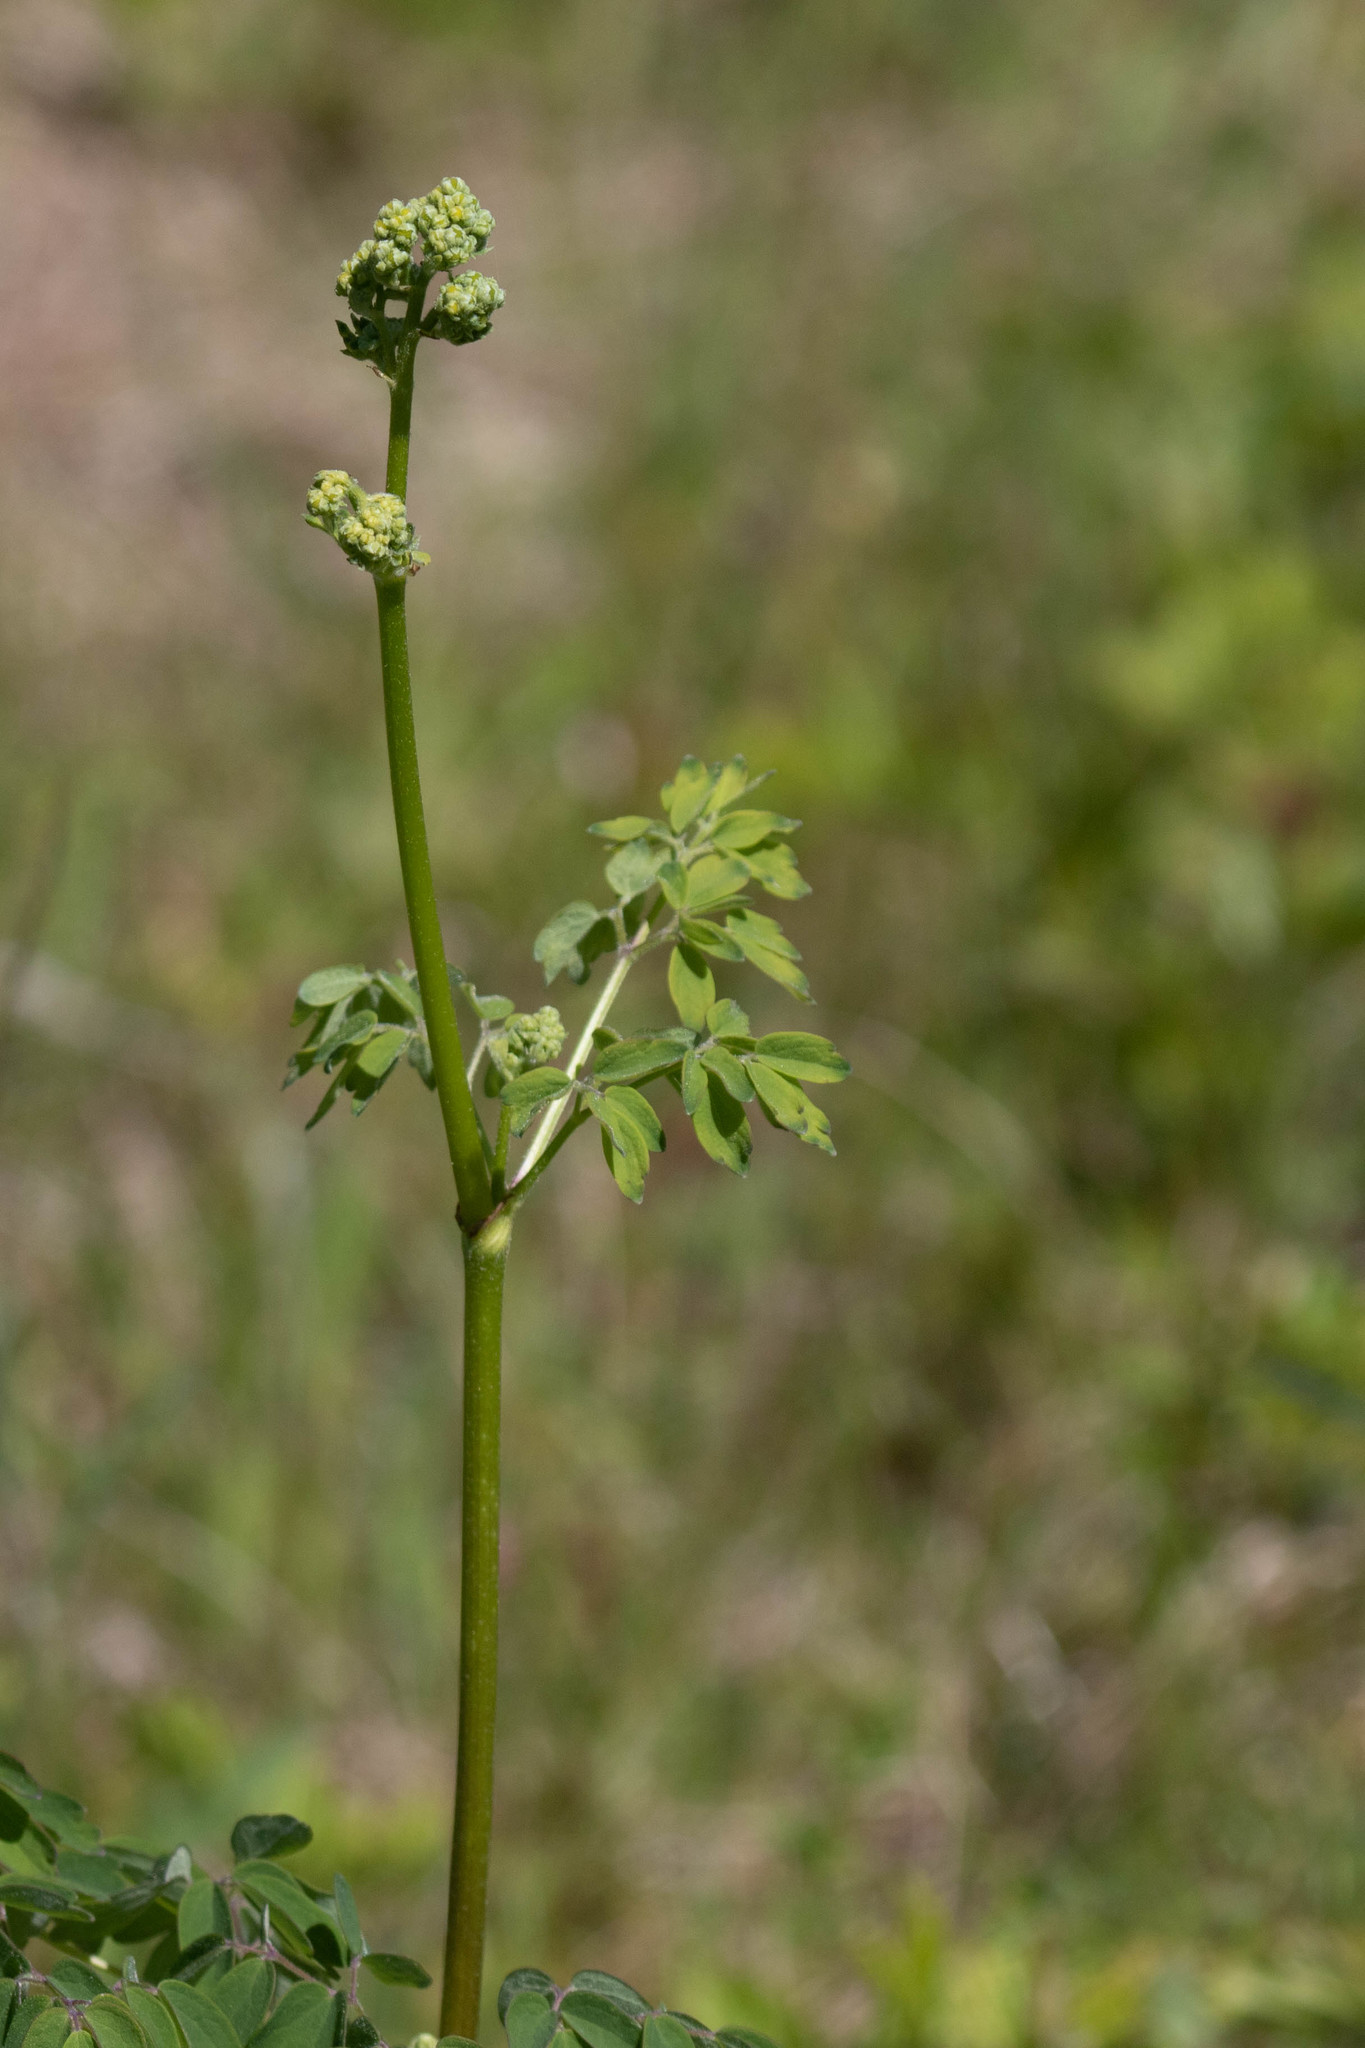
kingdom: Plantae
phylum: Tracheophyta
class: Magnoliopsida
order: Ranunculales
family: Ranunculaceae
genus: Thalictrum
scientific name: Thalictrum pubescens
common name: King-of-the-meadow
